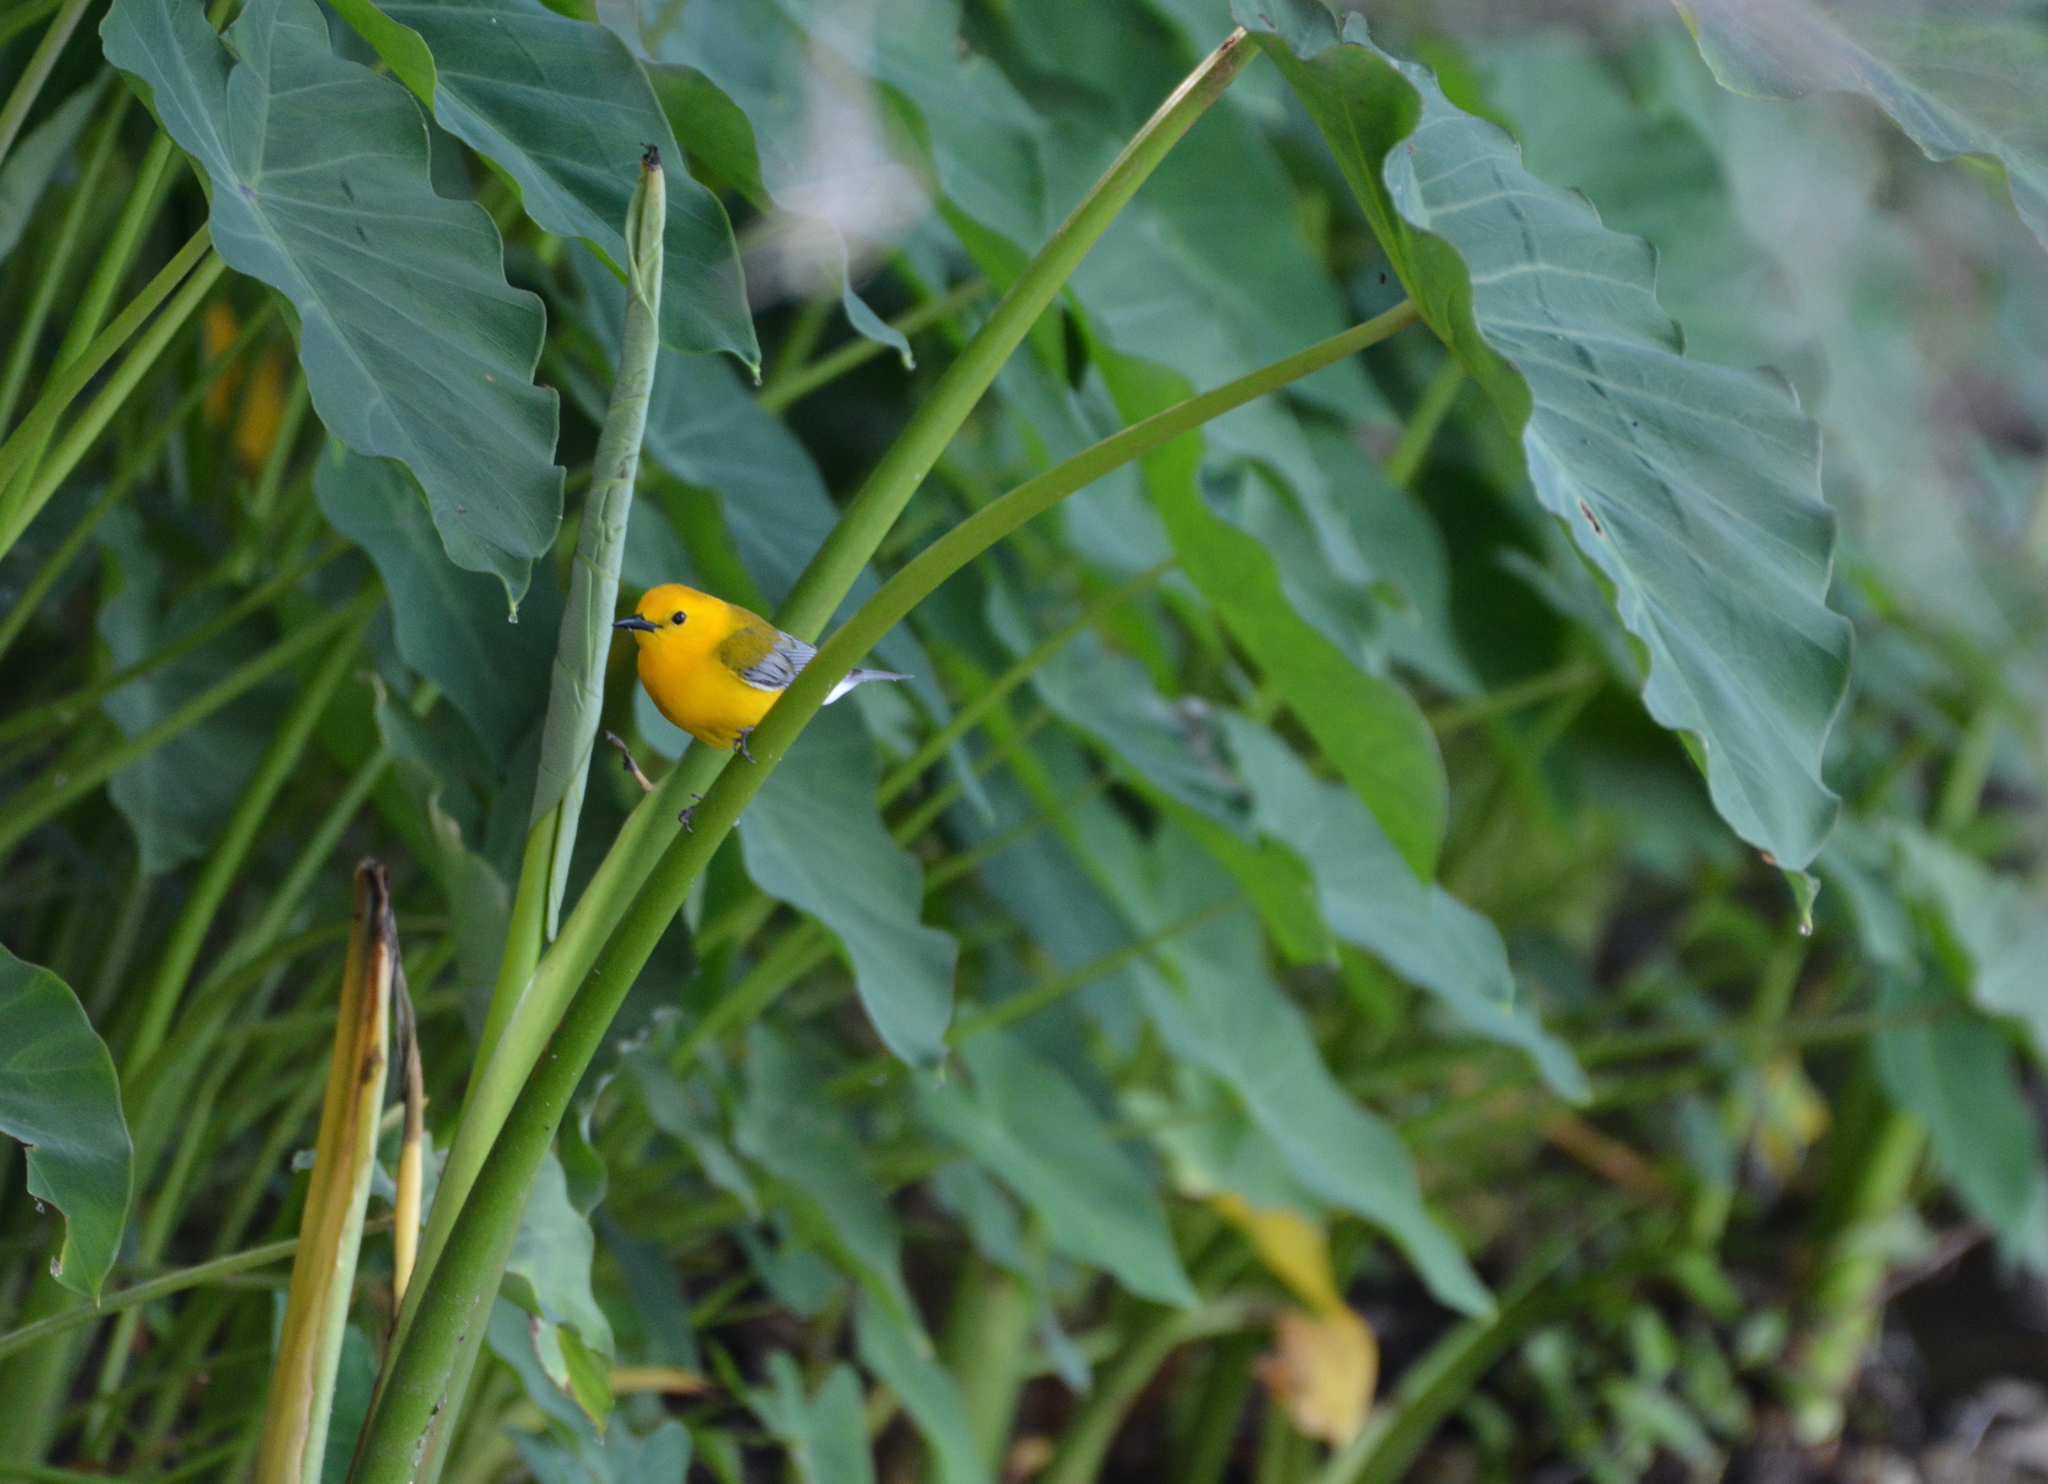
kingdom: Animalia
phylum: Chordata
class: Aves
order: Passeriformes
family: Parulidae
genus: Protonotaria
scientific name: Protonotaria citrea
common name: Prothonotary warbler
